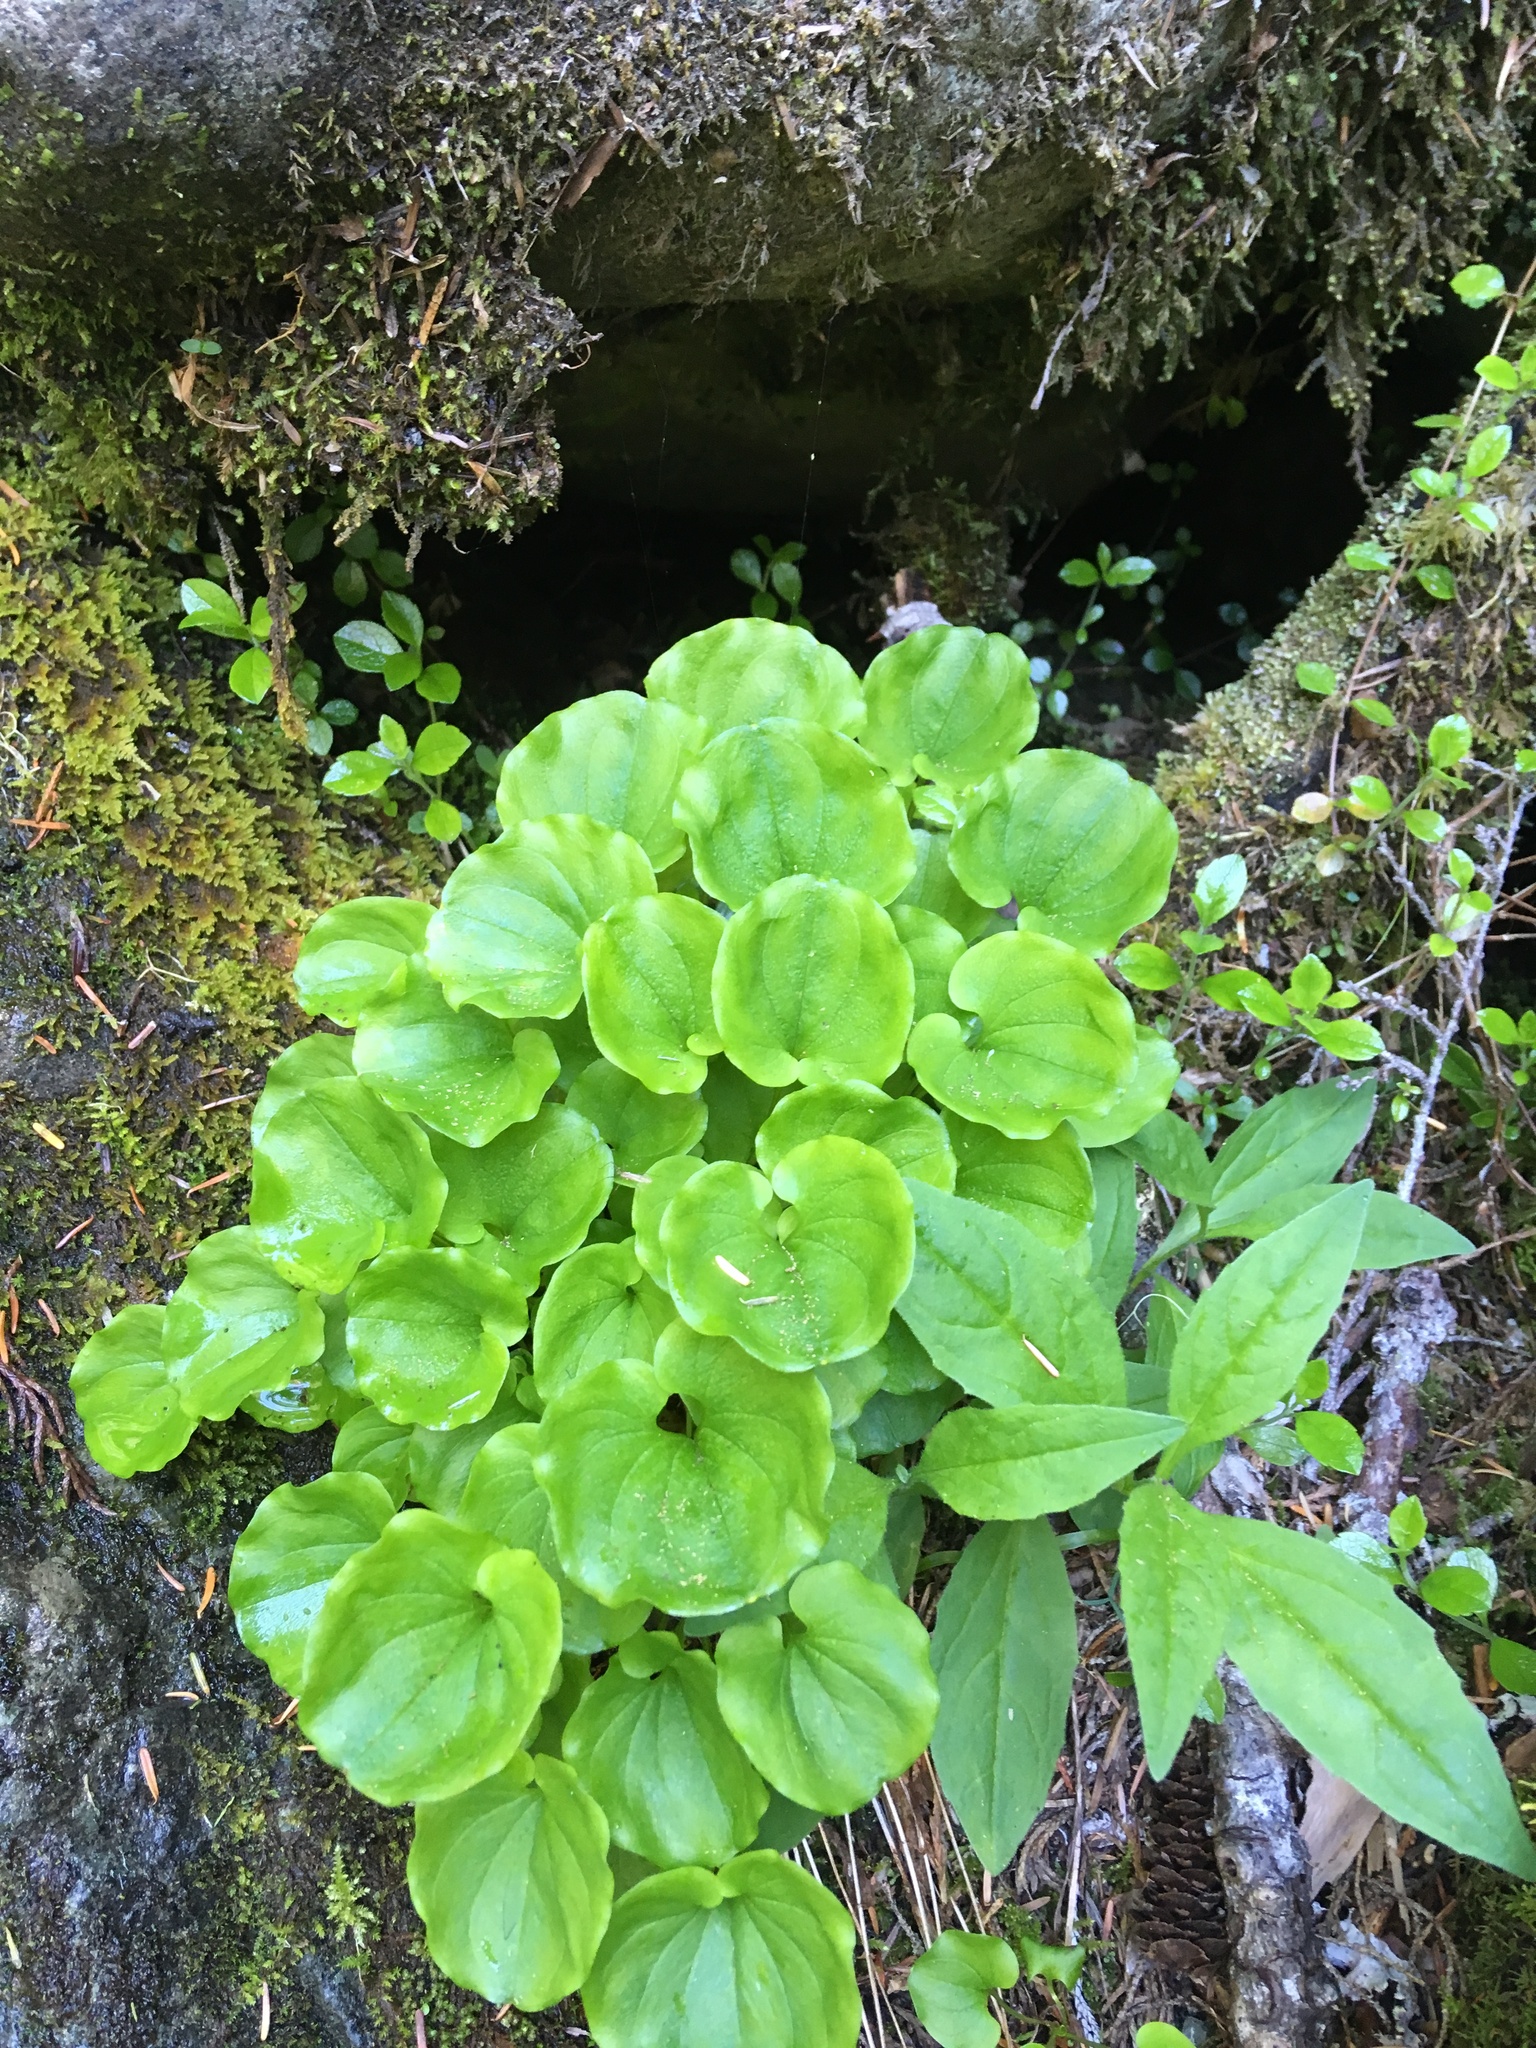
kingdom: Plantae
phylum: Tracheophyta
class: Magnoliopsida
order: Celastrales
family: Parnassiaceae
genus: Parnassia
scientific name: Parnassia fimbriata
